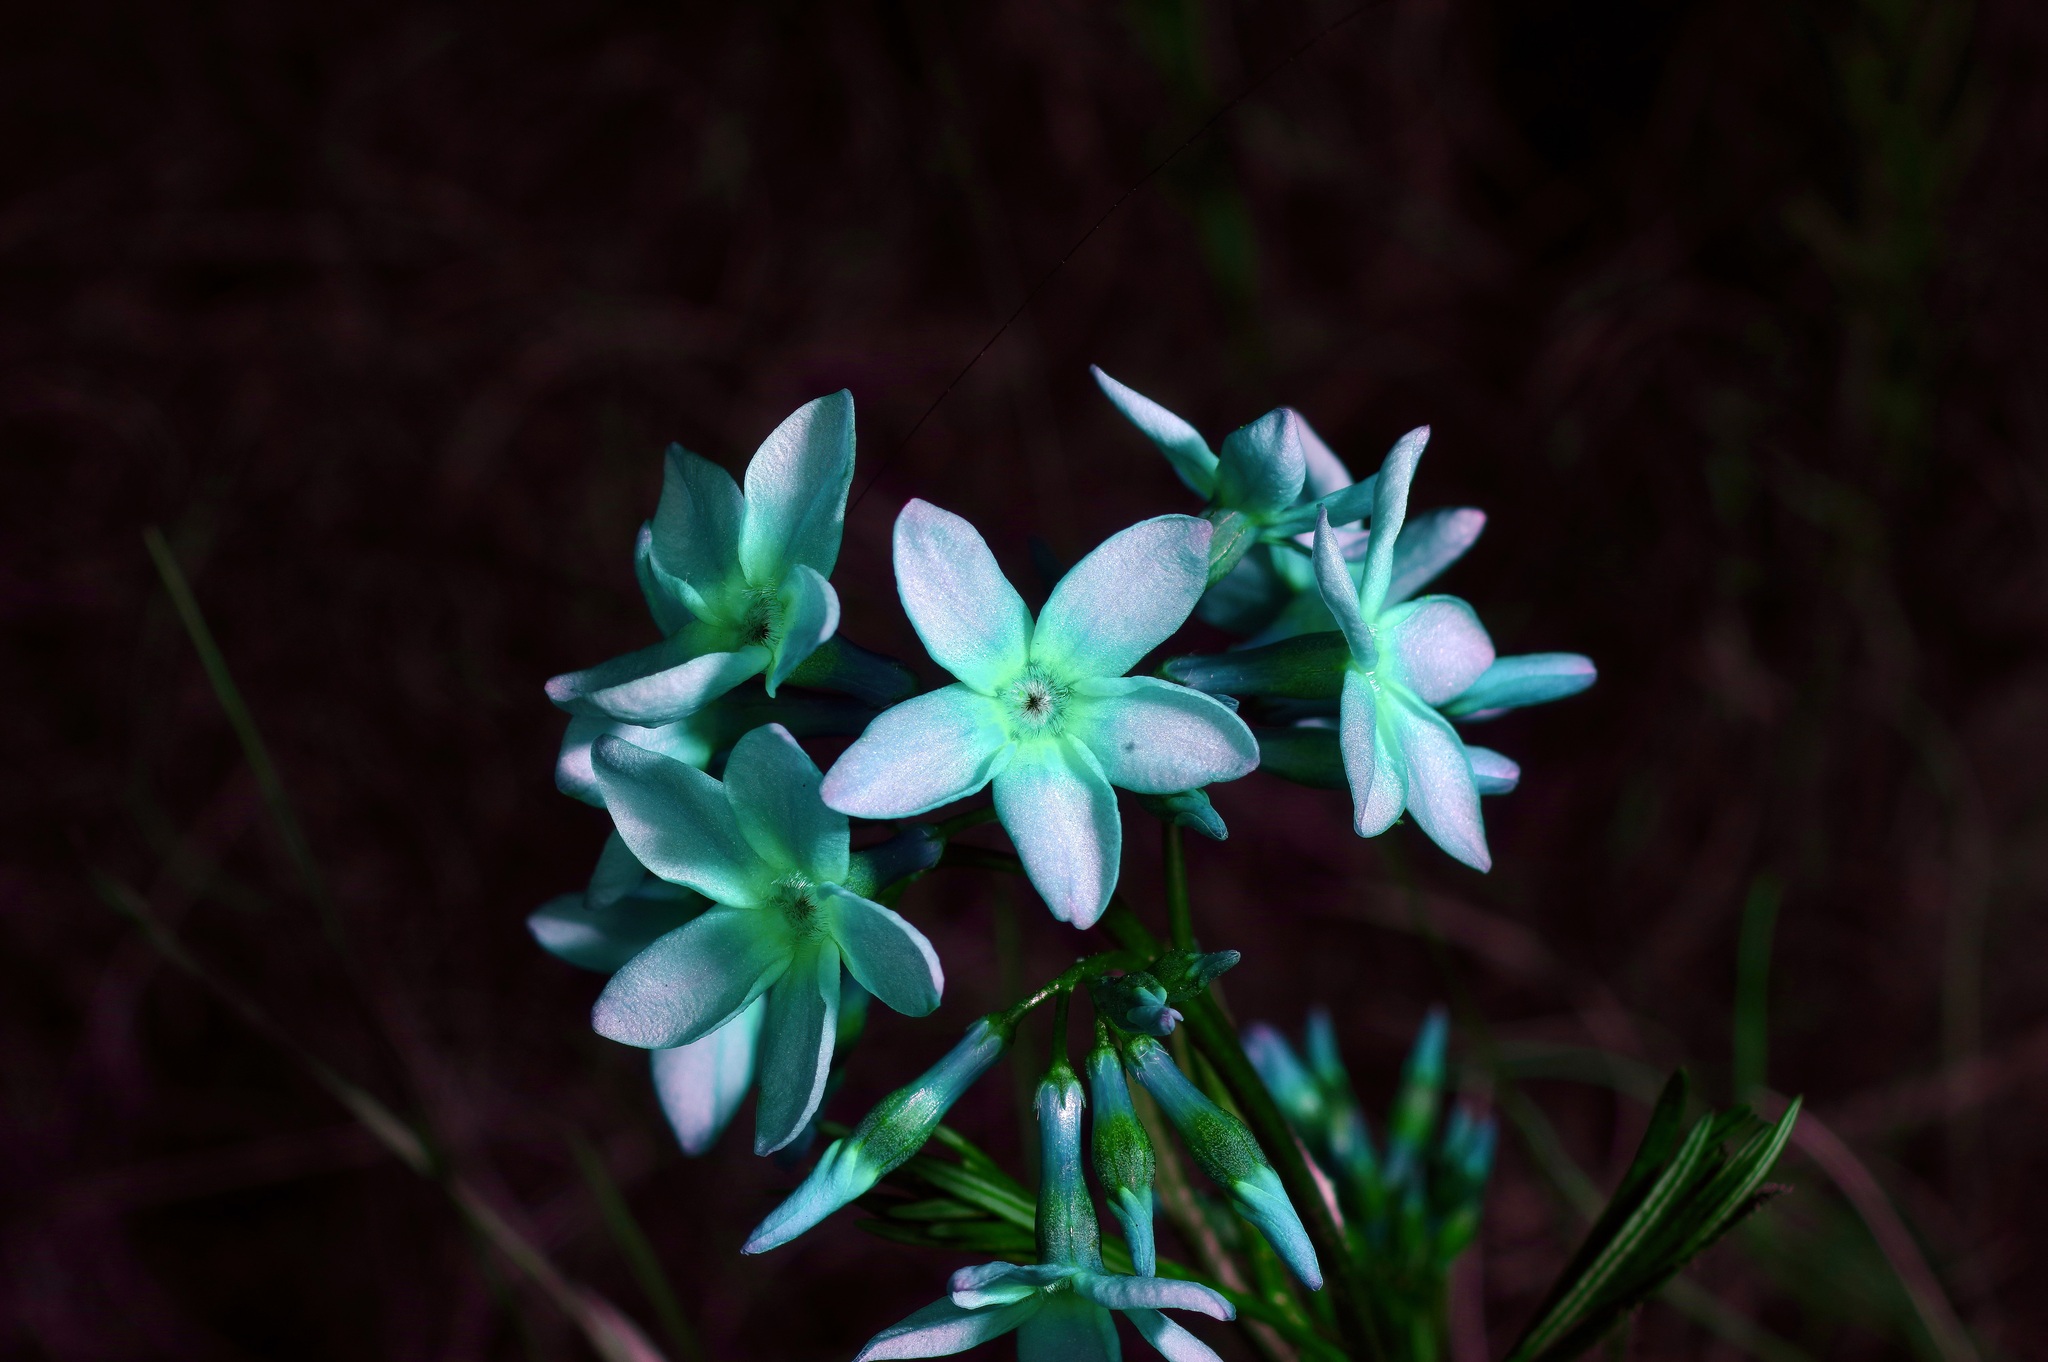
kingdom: Plantae
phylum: Tracheophyta
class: Magnoliopsida
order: Gentianales
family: Apocynaceae
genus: Amsonia
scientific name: Amsonia ciliata
